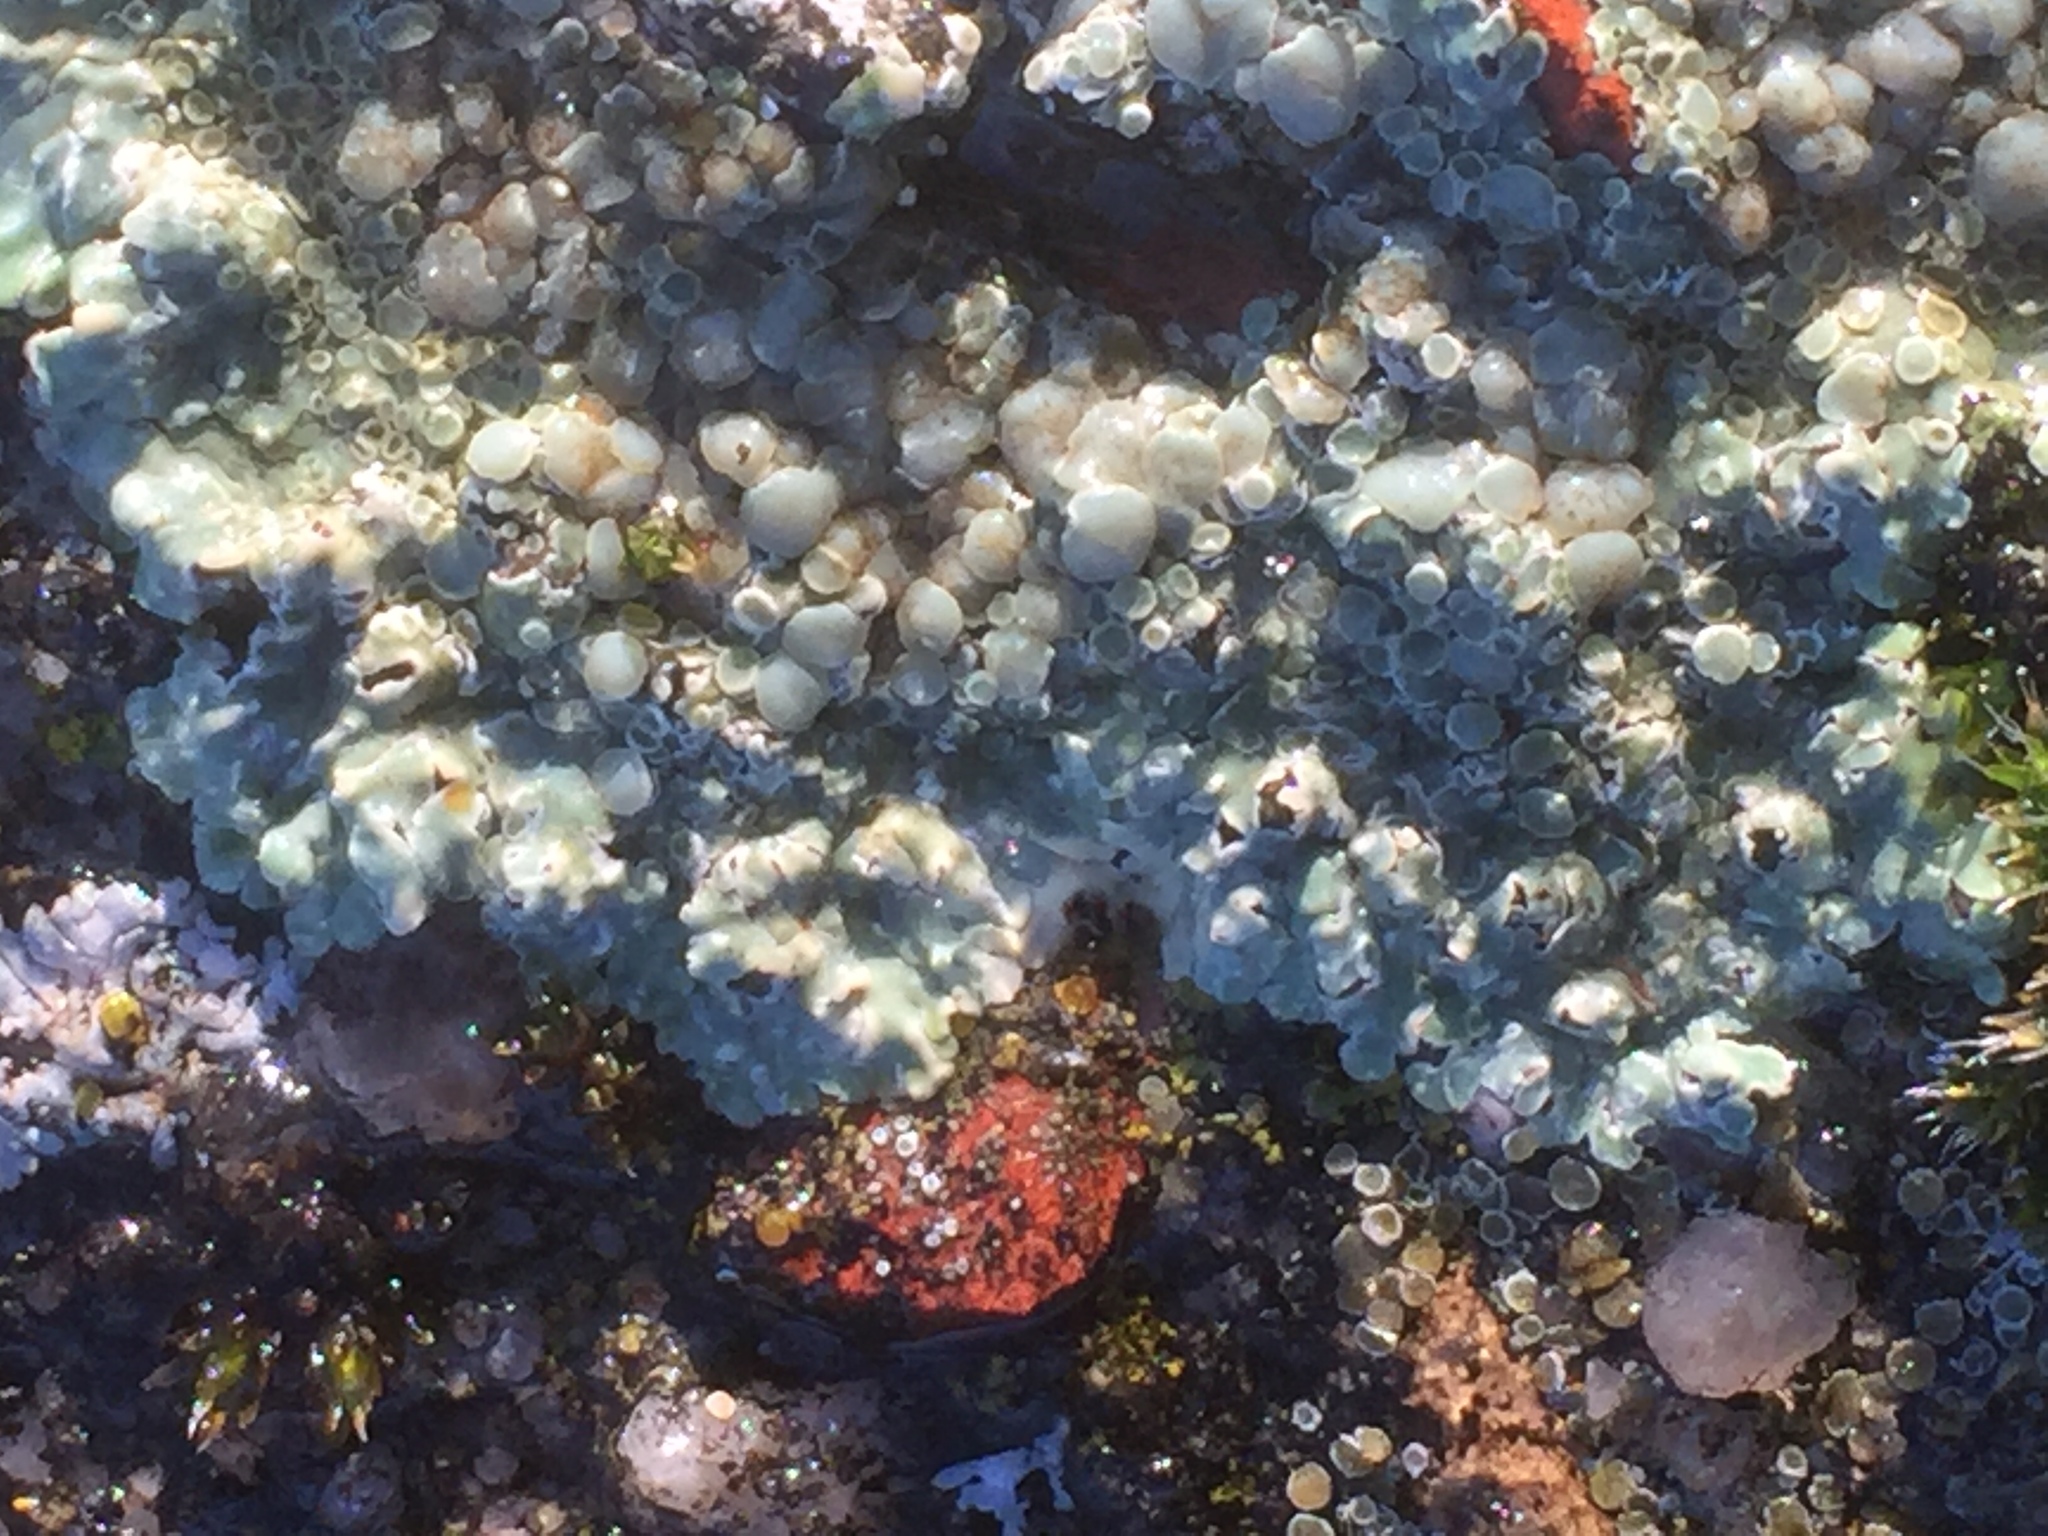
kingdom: Fungi
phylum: Ascomycota
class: Lecanoromycetes
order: Lecanorales
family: Lecanoraceae
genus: Protoparmeliopsis
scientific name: Protoparmeliopsis muralis
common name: Stonewall rim lichen
